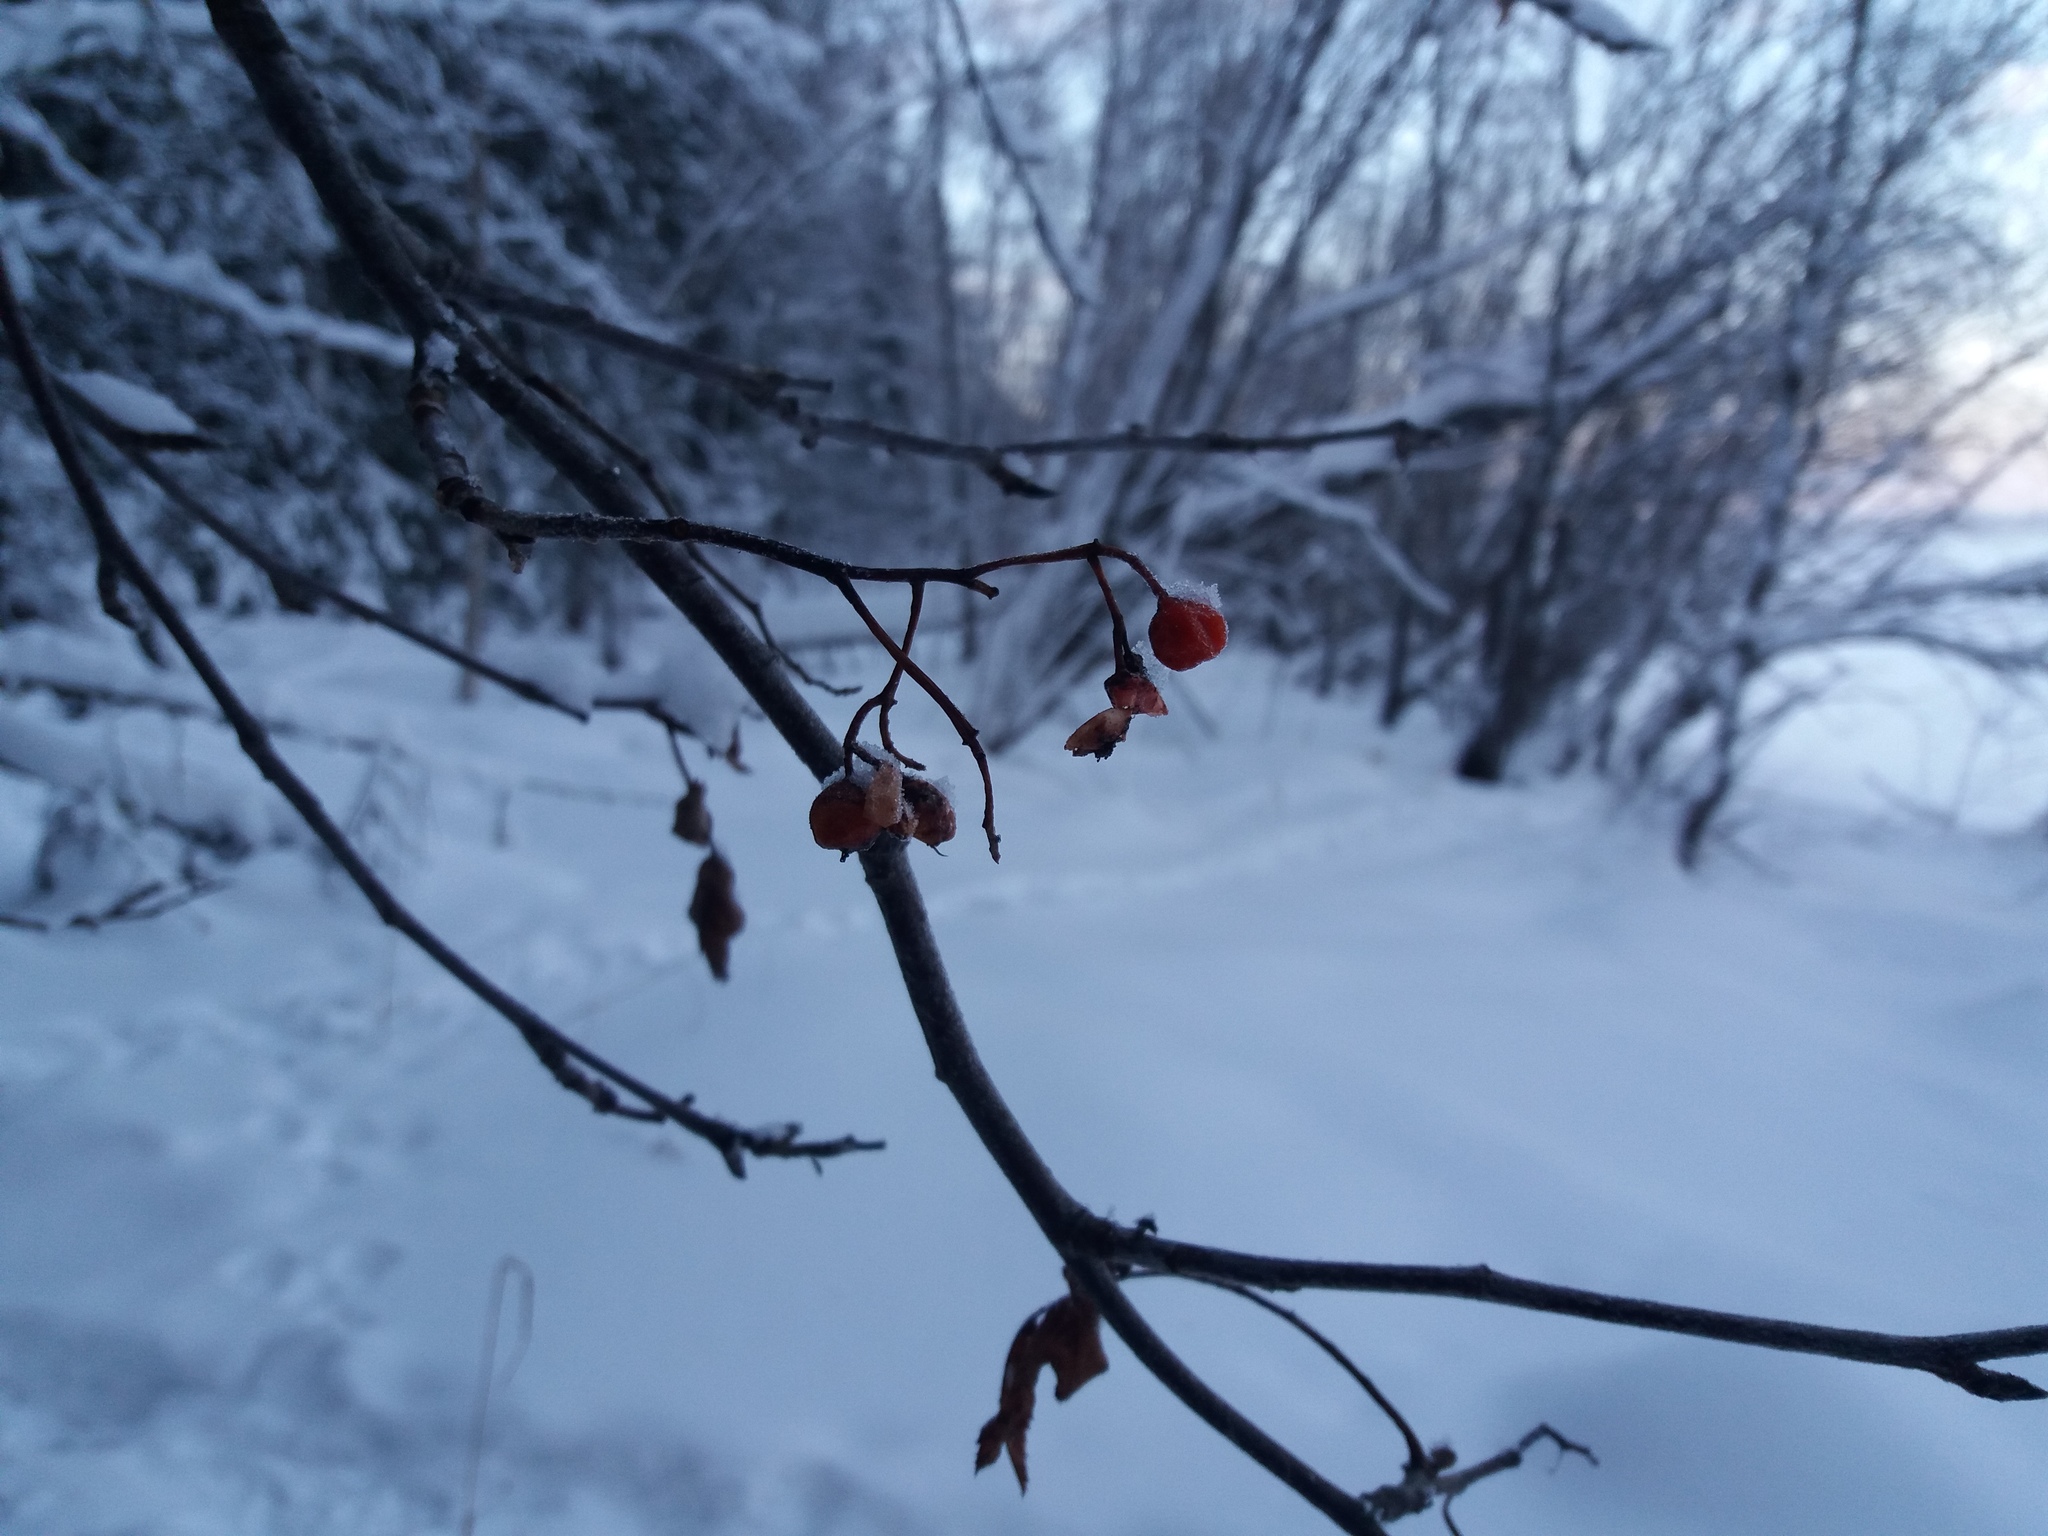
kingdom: Plantae
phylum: Tracheophyta
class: Magnoliopsida
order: Rosales
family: Rosaceae
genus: Sorbus
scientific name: Sorbus aucuparia
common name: Rowan
